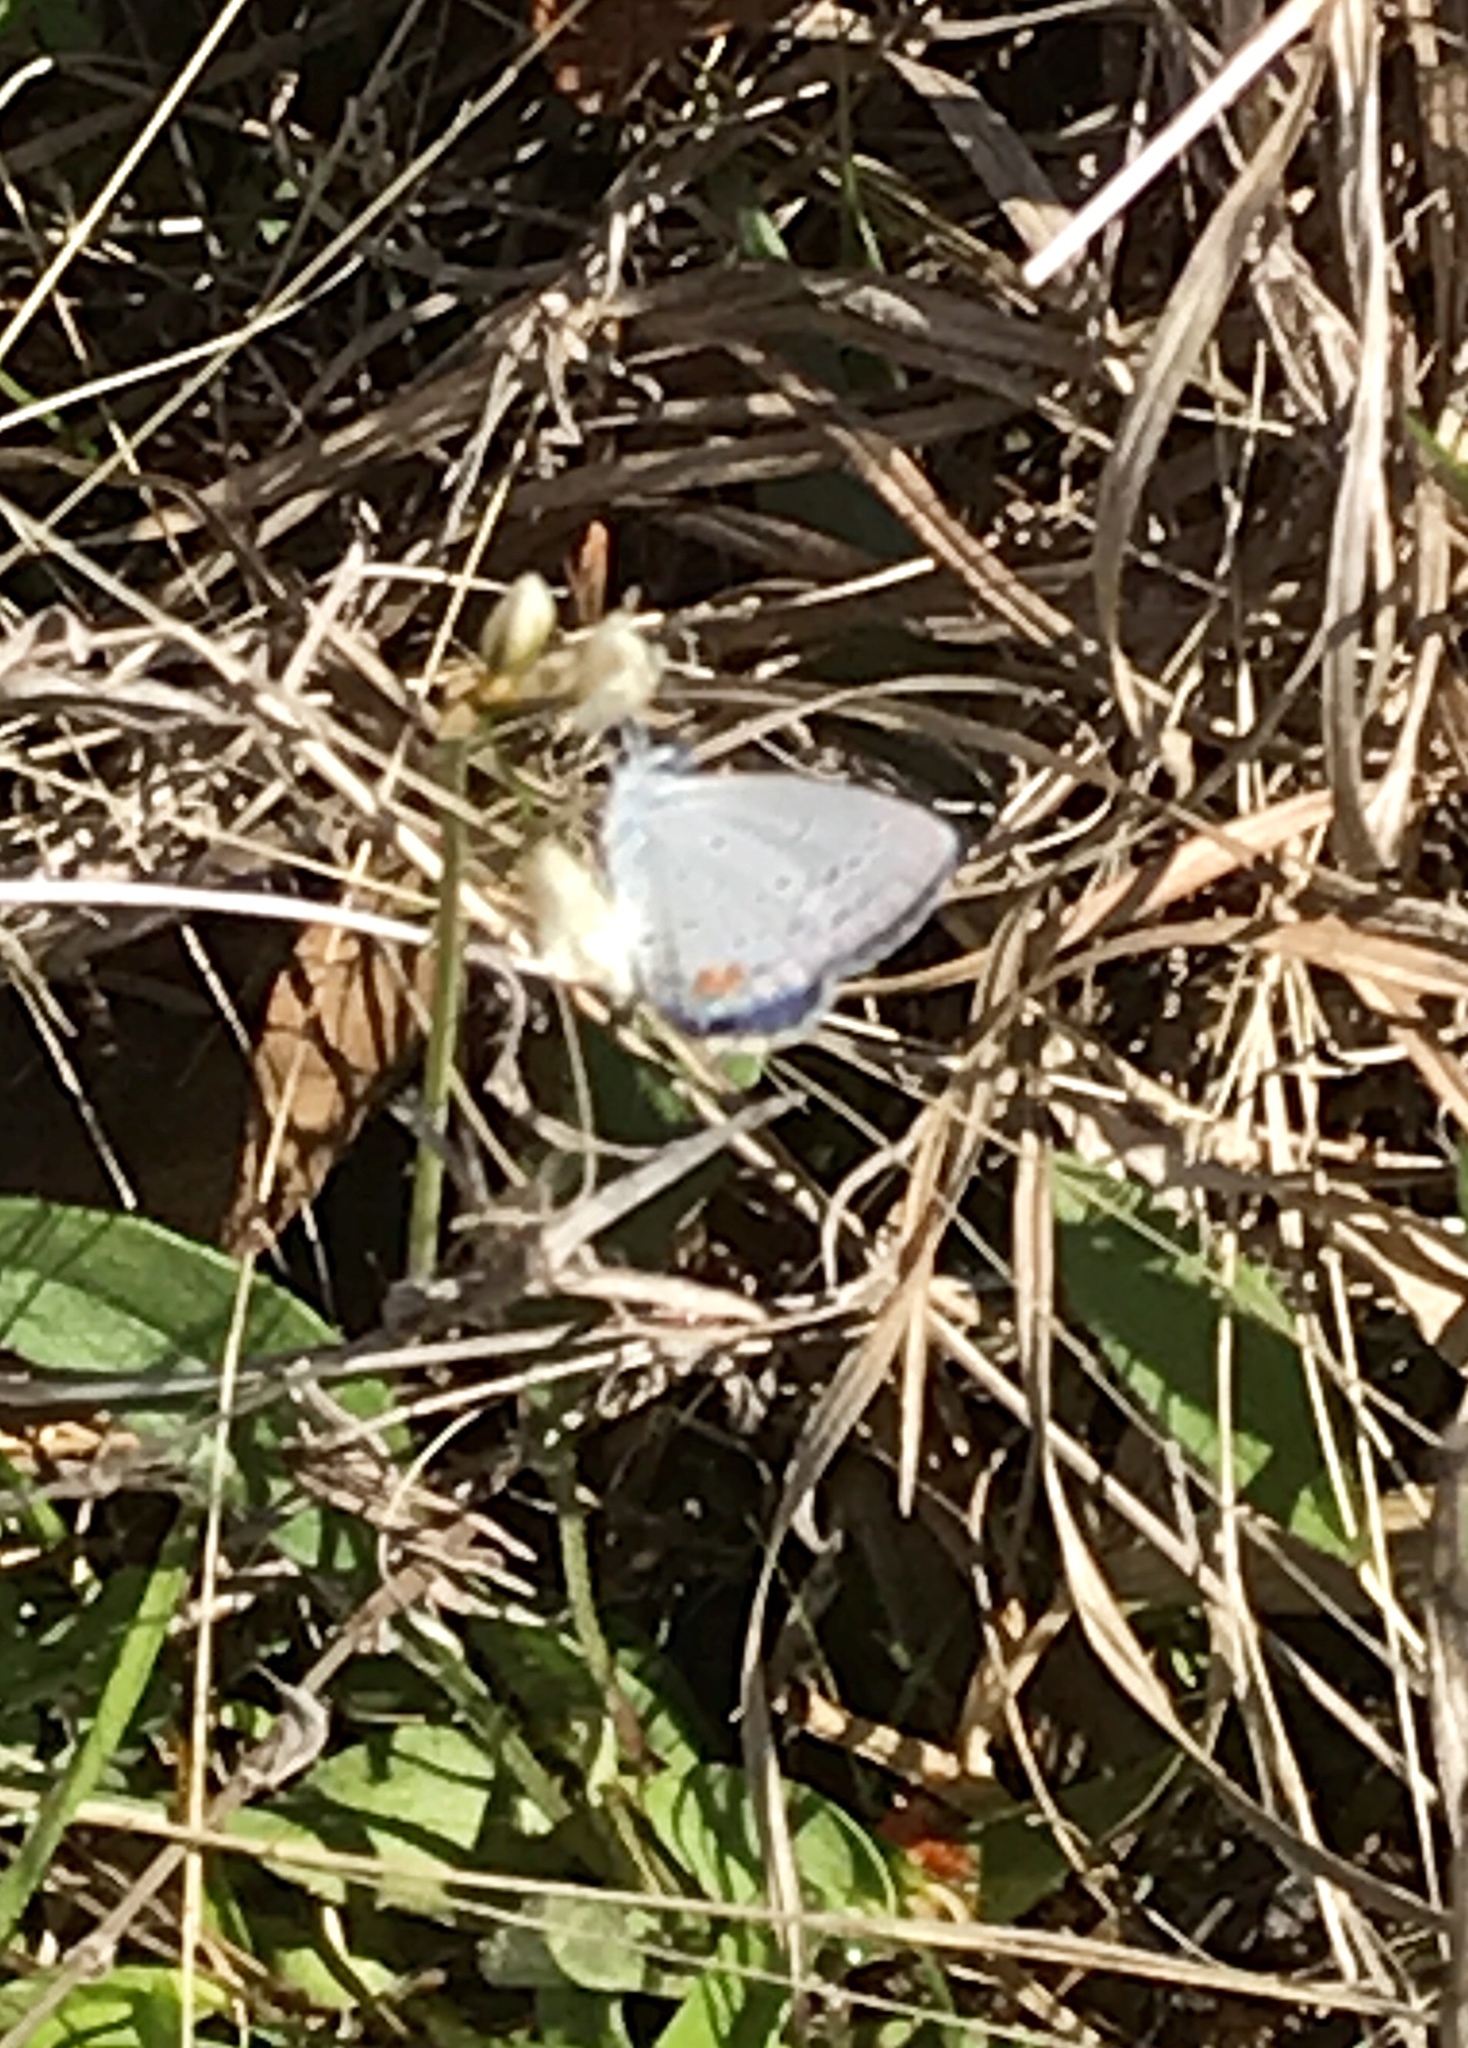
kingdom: Animalia
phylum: Arthropoda
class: Insecta
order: Lepidoptera
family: Lycaenidae
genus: Elkalyce
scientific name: Elkalyce comyntas
